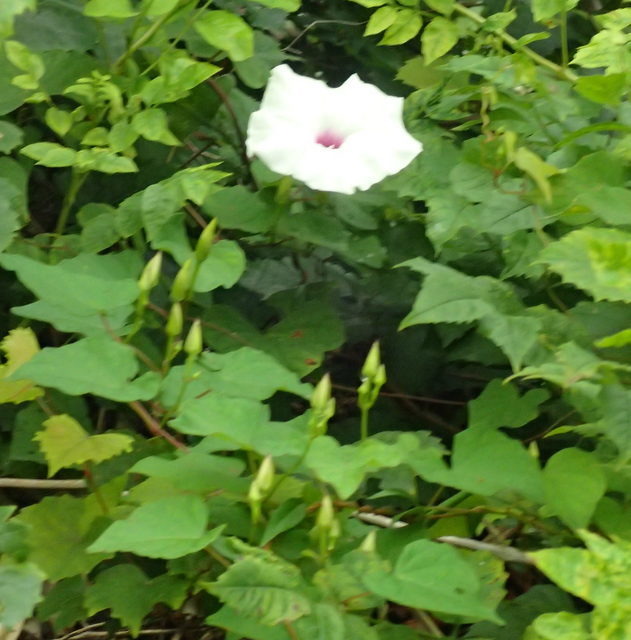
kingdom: Plantae
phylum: Tracheophyta
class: Magnoliopsida
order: Solanales
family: Convolvulaceae
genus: Ipomoea
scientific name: Ipomoea pandurata
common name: Man-of-the-earth
